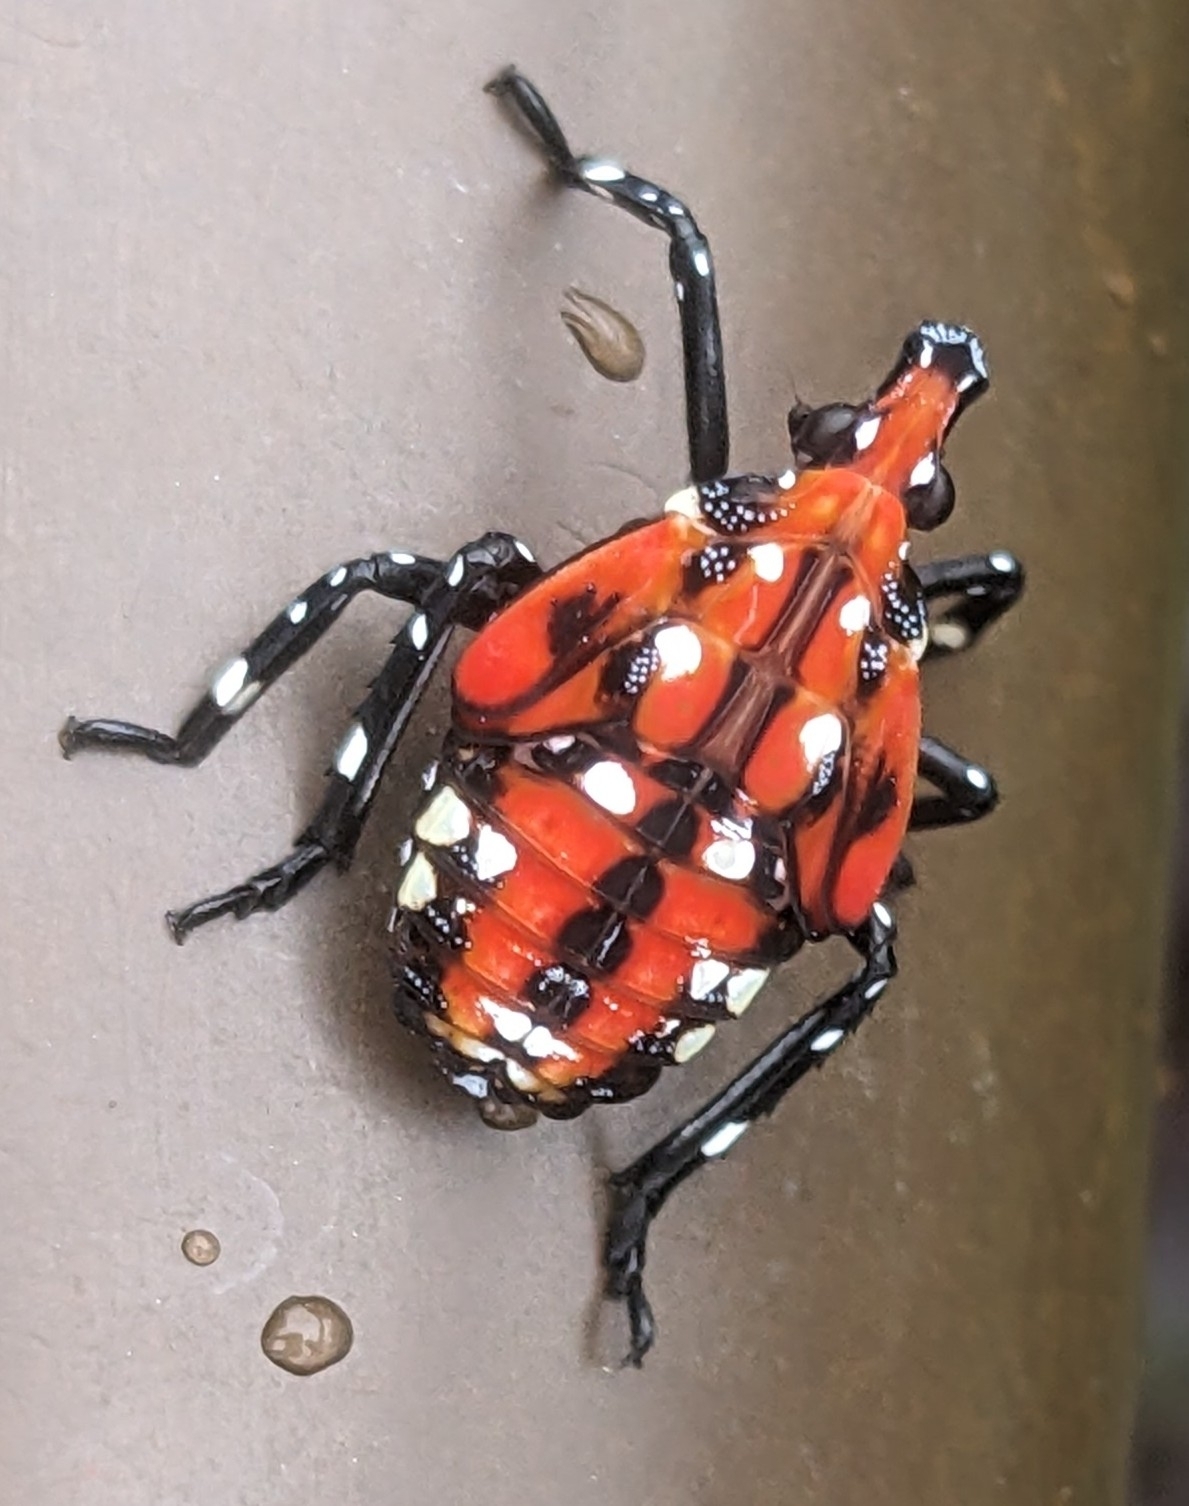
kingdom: Animalia
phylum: Arthropoda
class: Insecta
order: Hemiptera
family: Fulgoridae
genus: Lycorma
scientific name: Lycorma delicatula
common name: Spotted lanternfly
